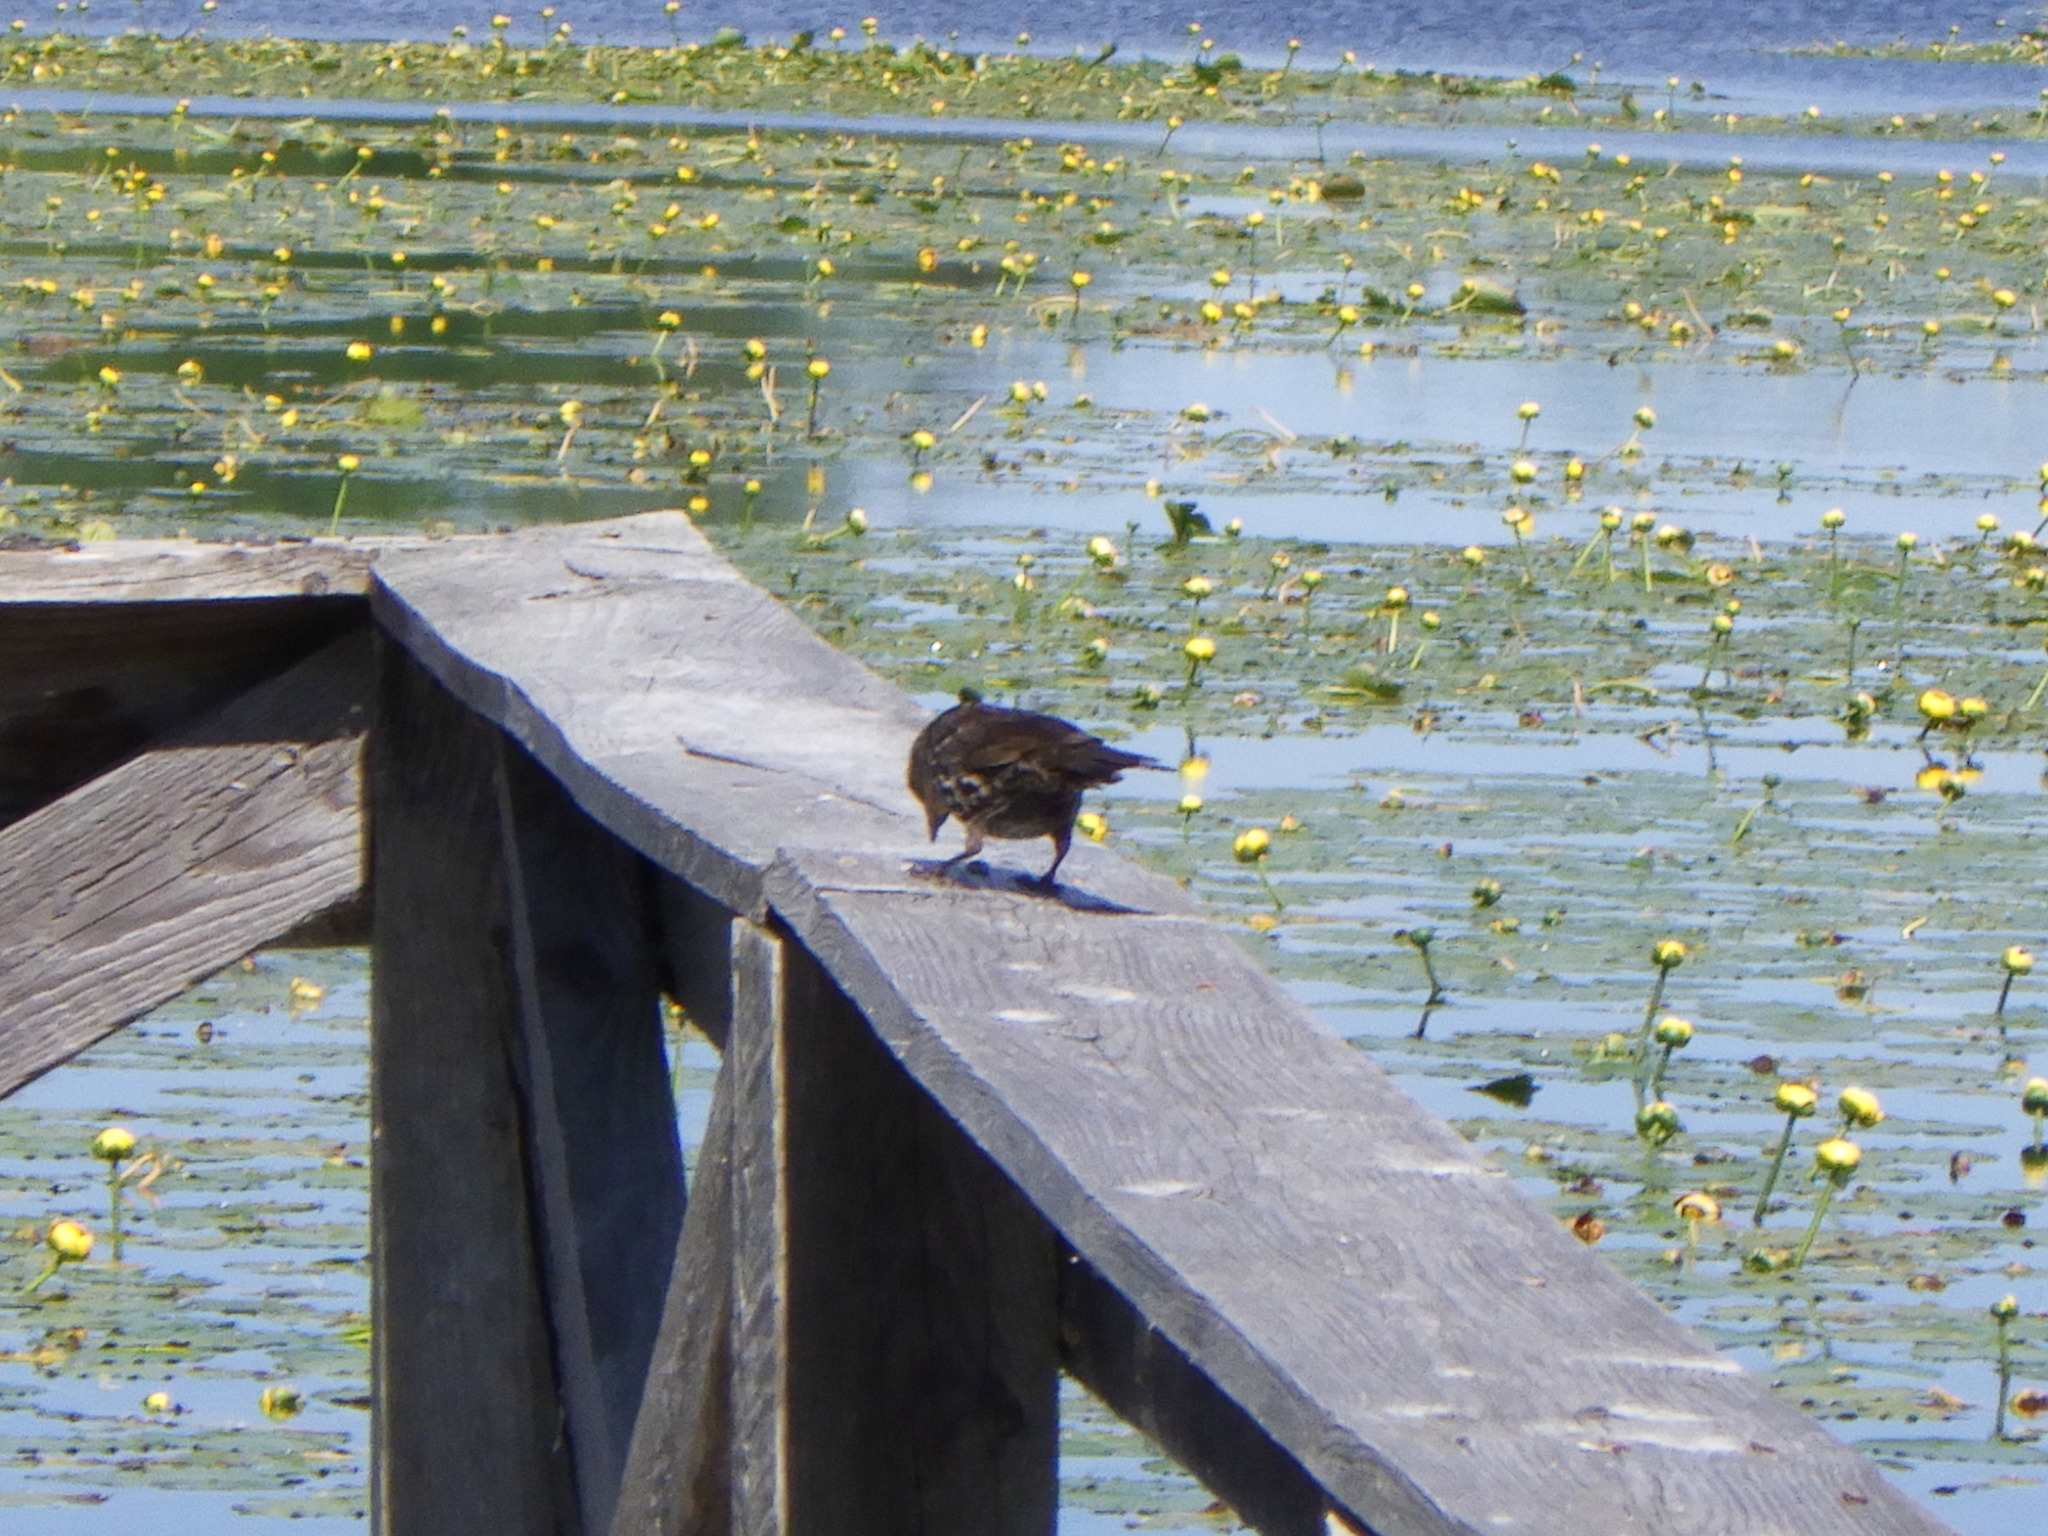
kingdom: Animalia
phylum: Chordata
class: Aves
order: Passeriformes
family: Icteridae
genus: Agelaius
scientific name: Agelaius phoeniceus
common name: Red-winged blackbird
